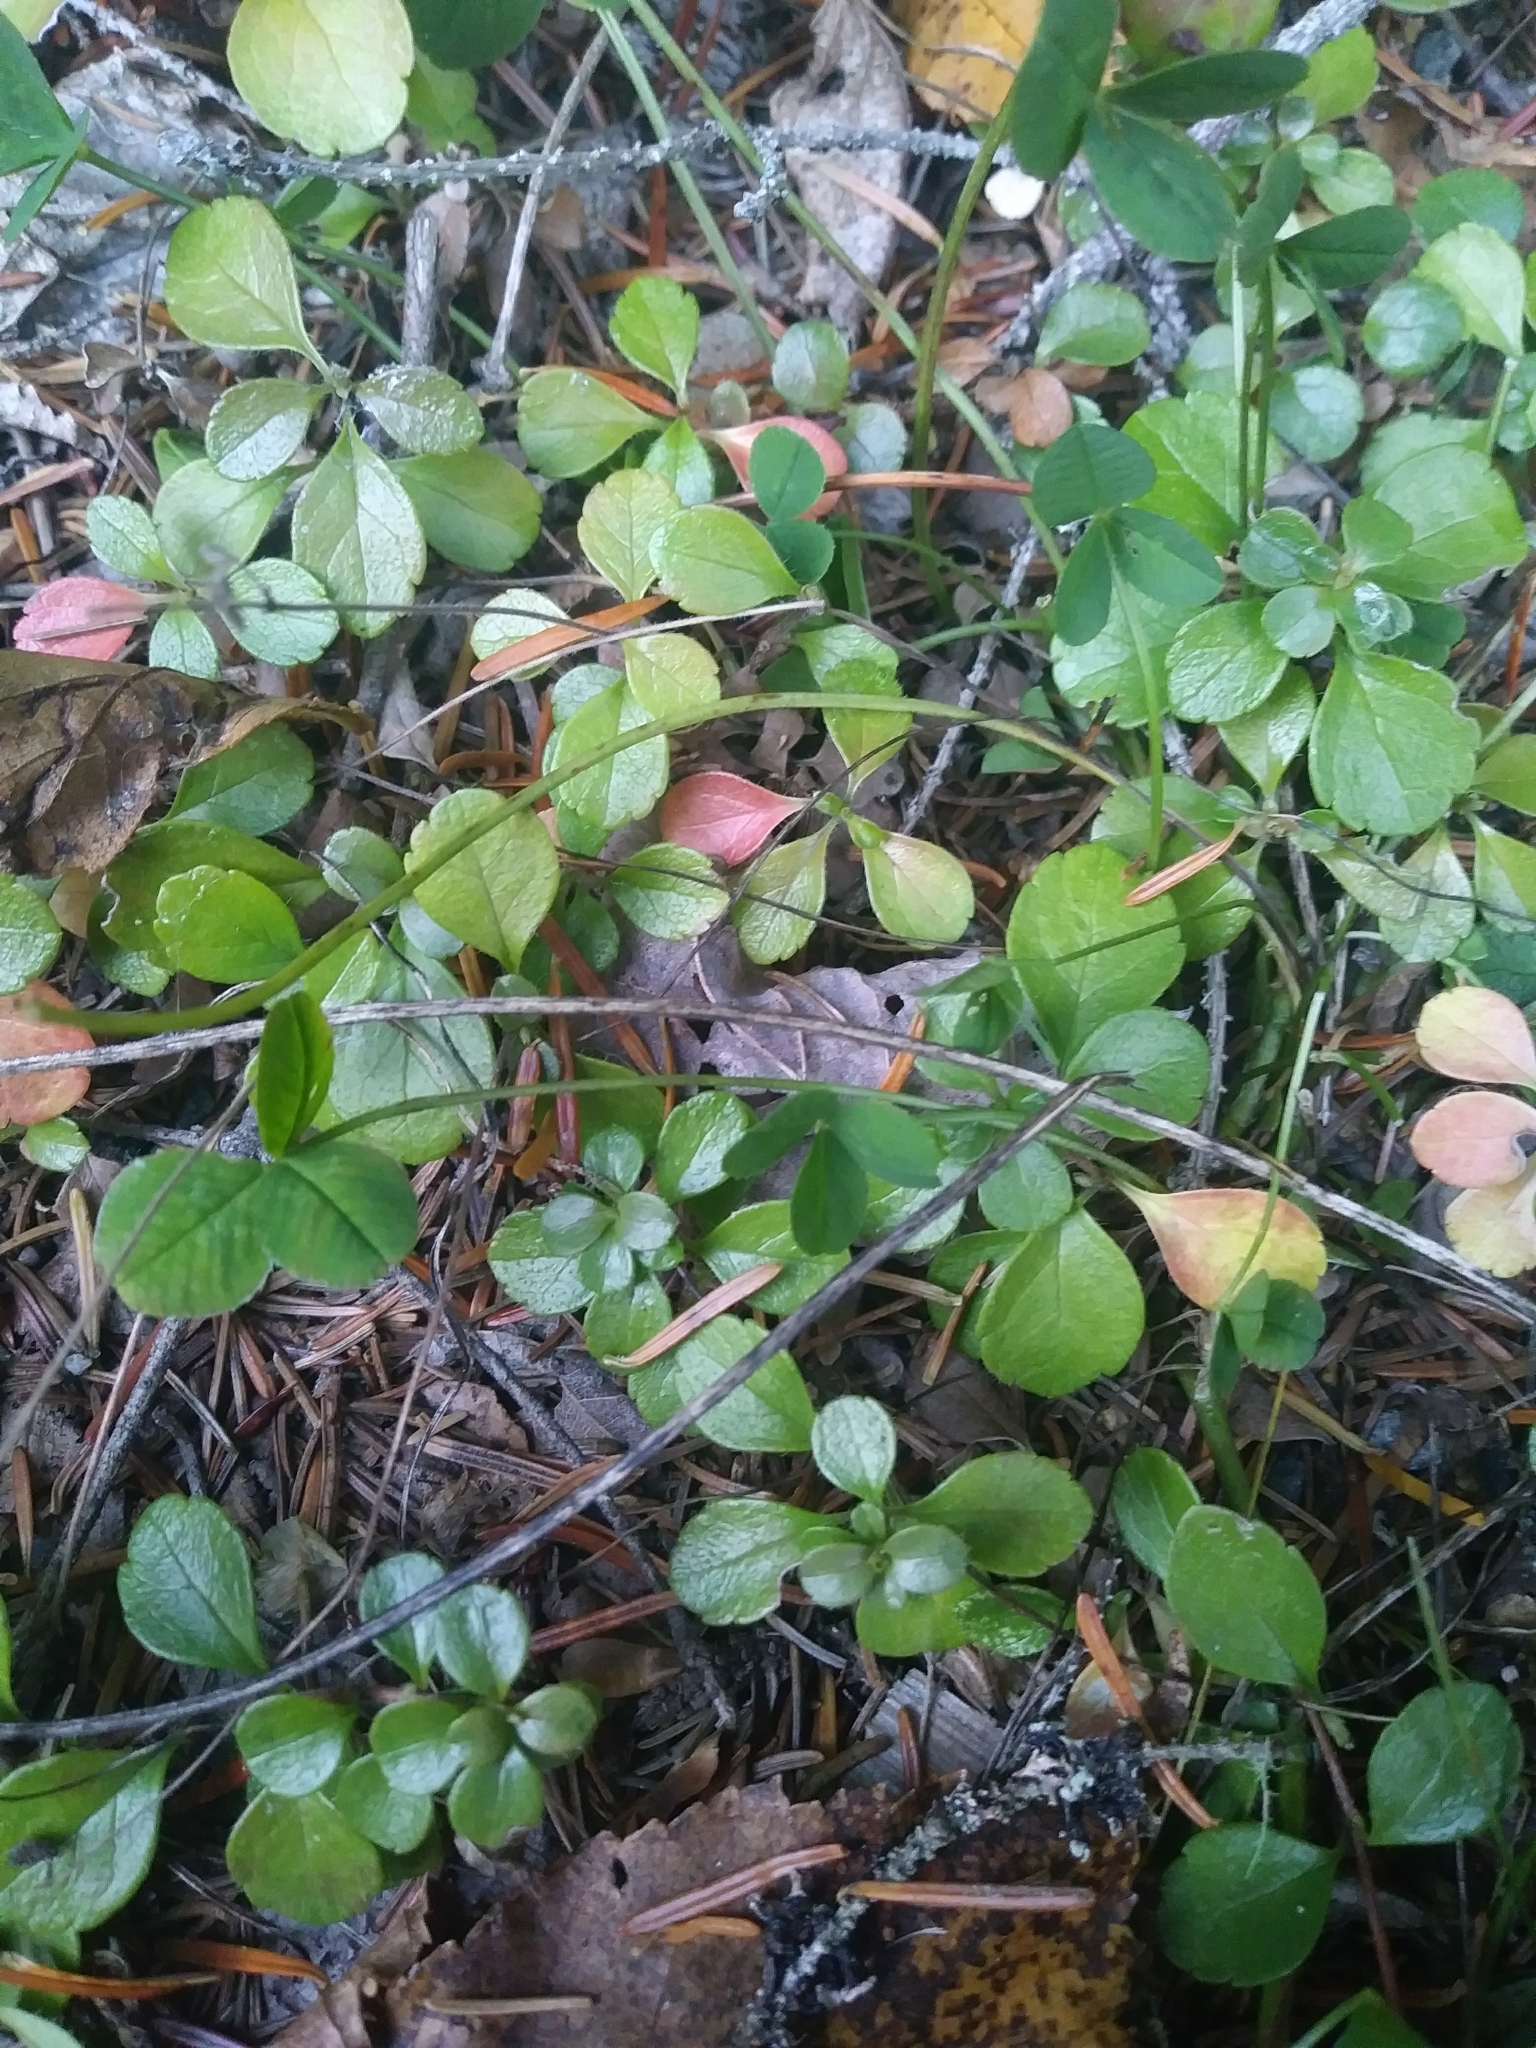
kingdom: Plantae
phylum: Tracheophyta
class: Magnoliopsida
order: Dipsacales
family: Caprifoliaceae
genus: Linnaea
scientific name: Linnaea borealis
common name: Twinflower
